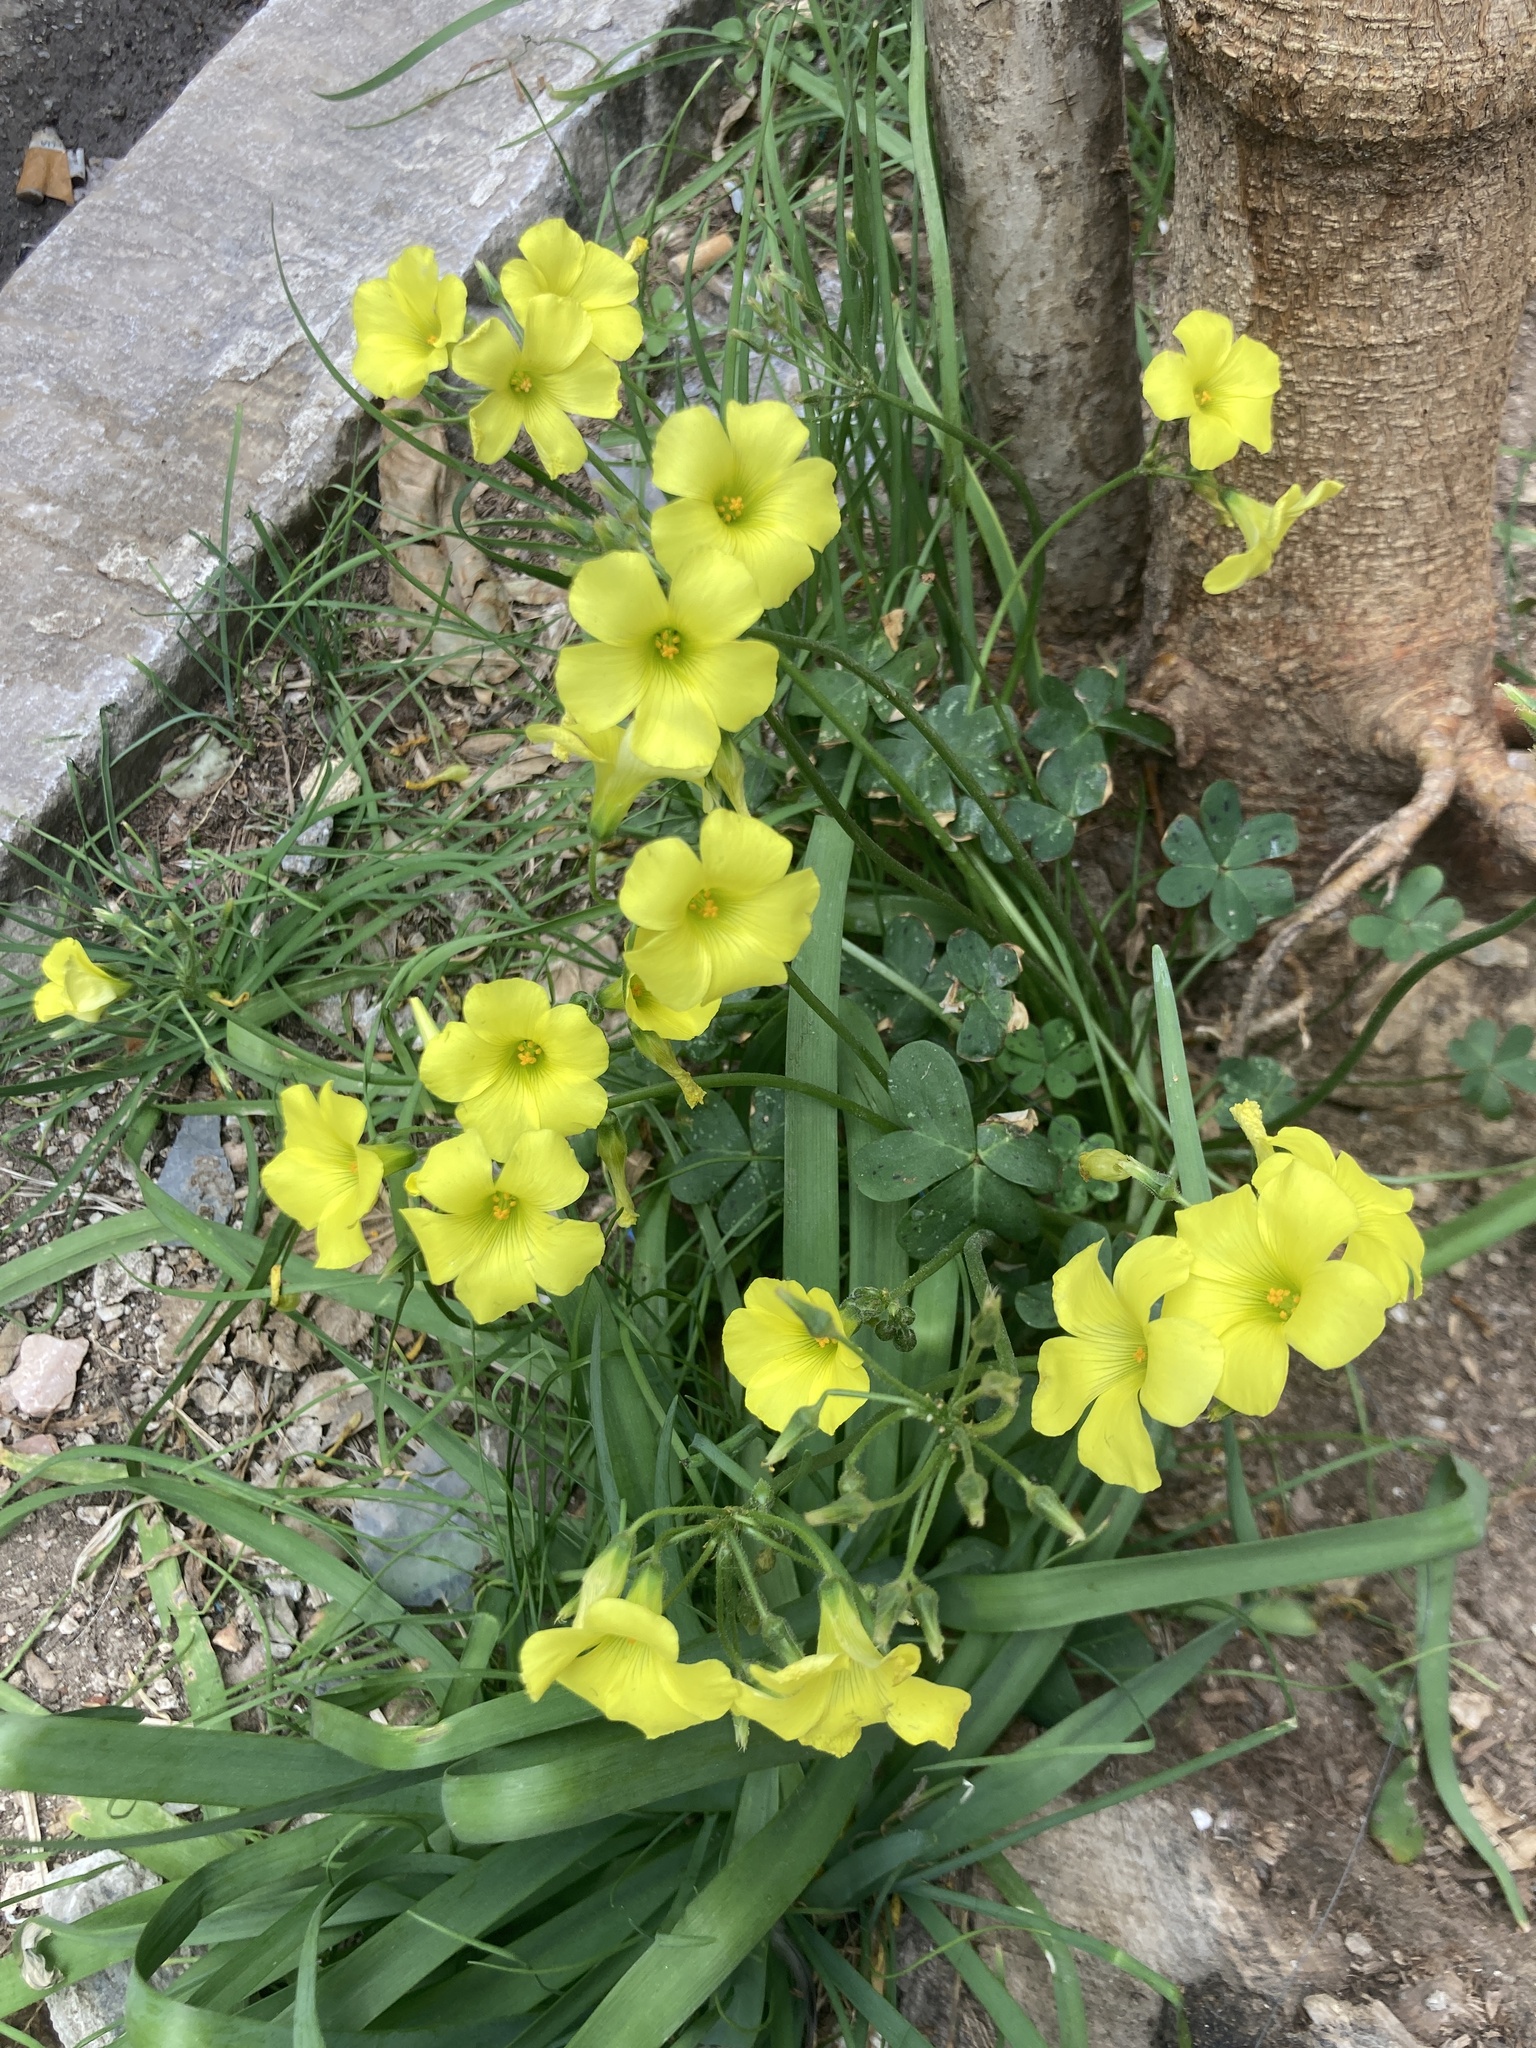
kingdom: Plantae
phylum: Tracheophyta
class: Magnoliopsida
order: Oxalidales
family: Oxalidaceae
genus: Oxalis
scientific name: Oxalis pes-caprae
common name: Bermuda-buttercup
